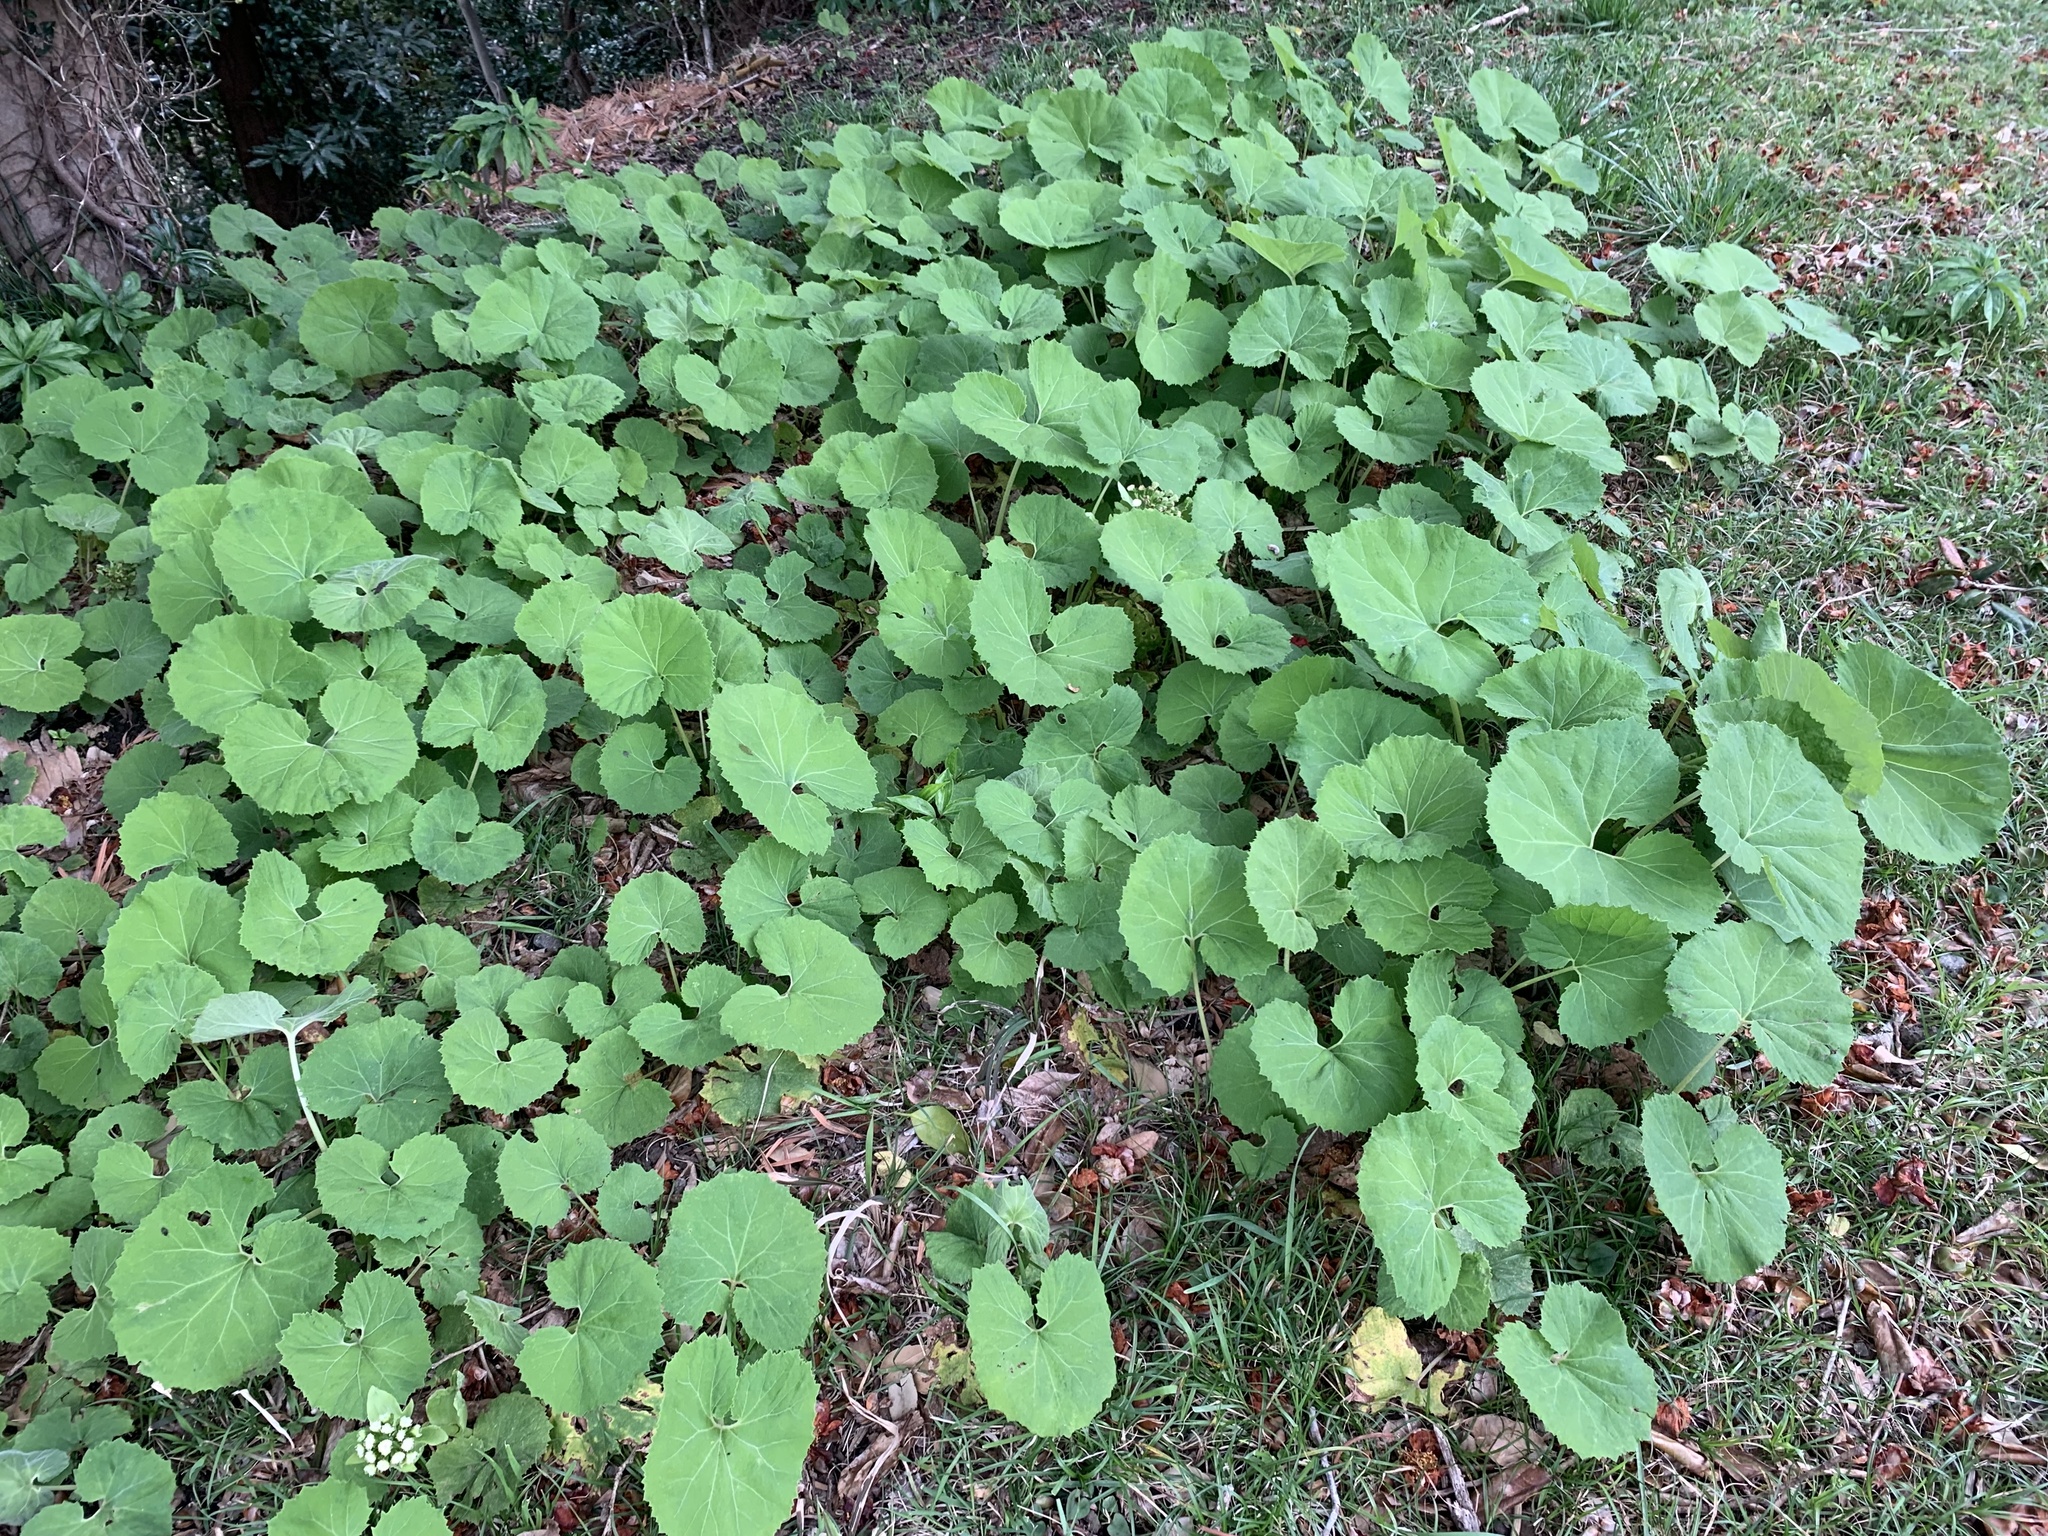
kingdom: Plantae
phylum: Tracheophyta
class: Magnoliopsida
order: Asterales
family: Asteraceae
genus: Petasites
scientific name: Petasites japonicus
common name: Giant butterbur
